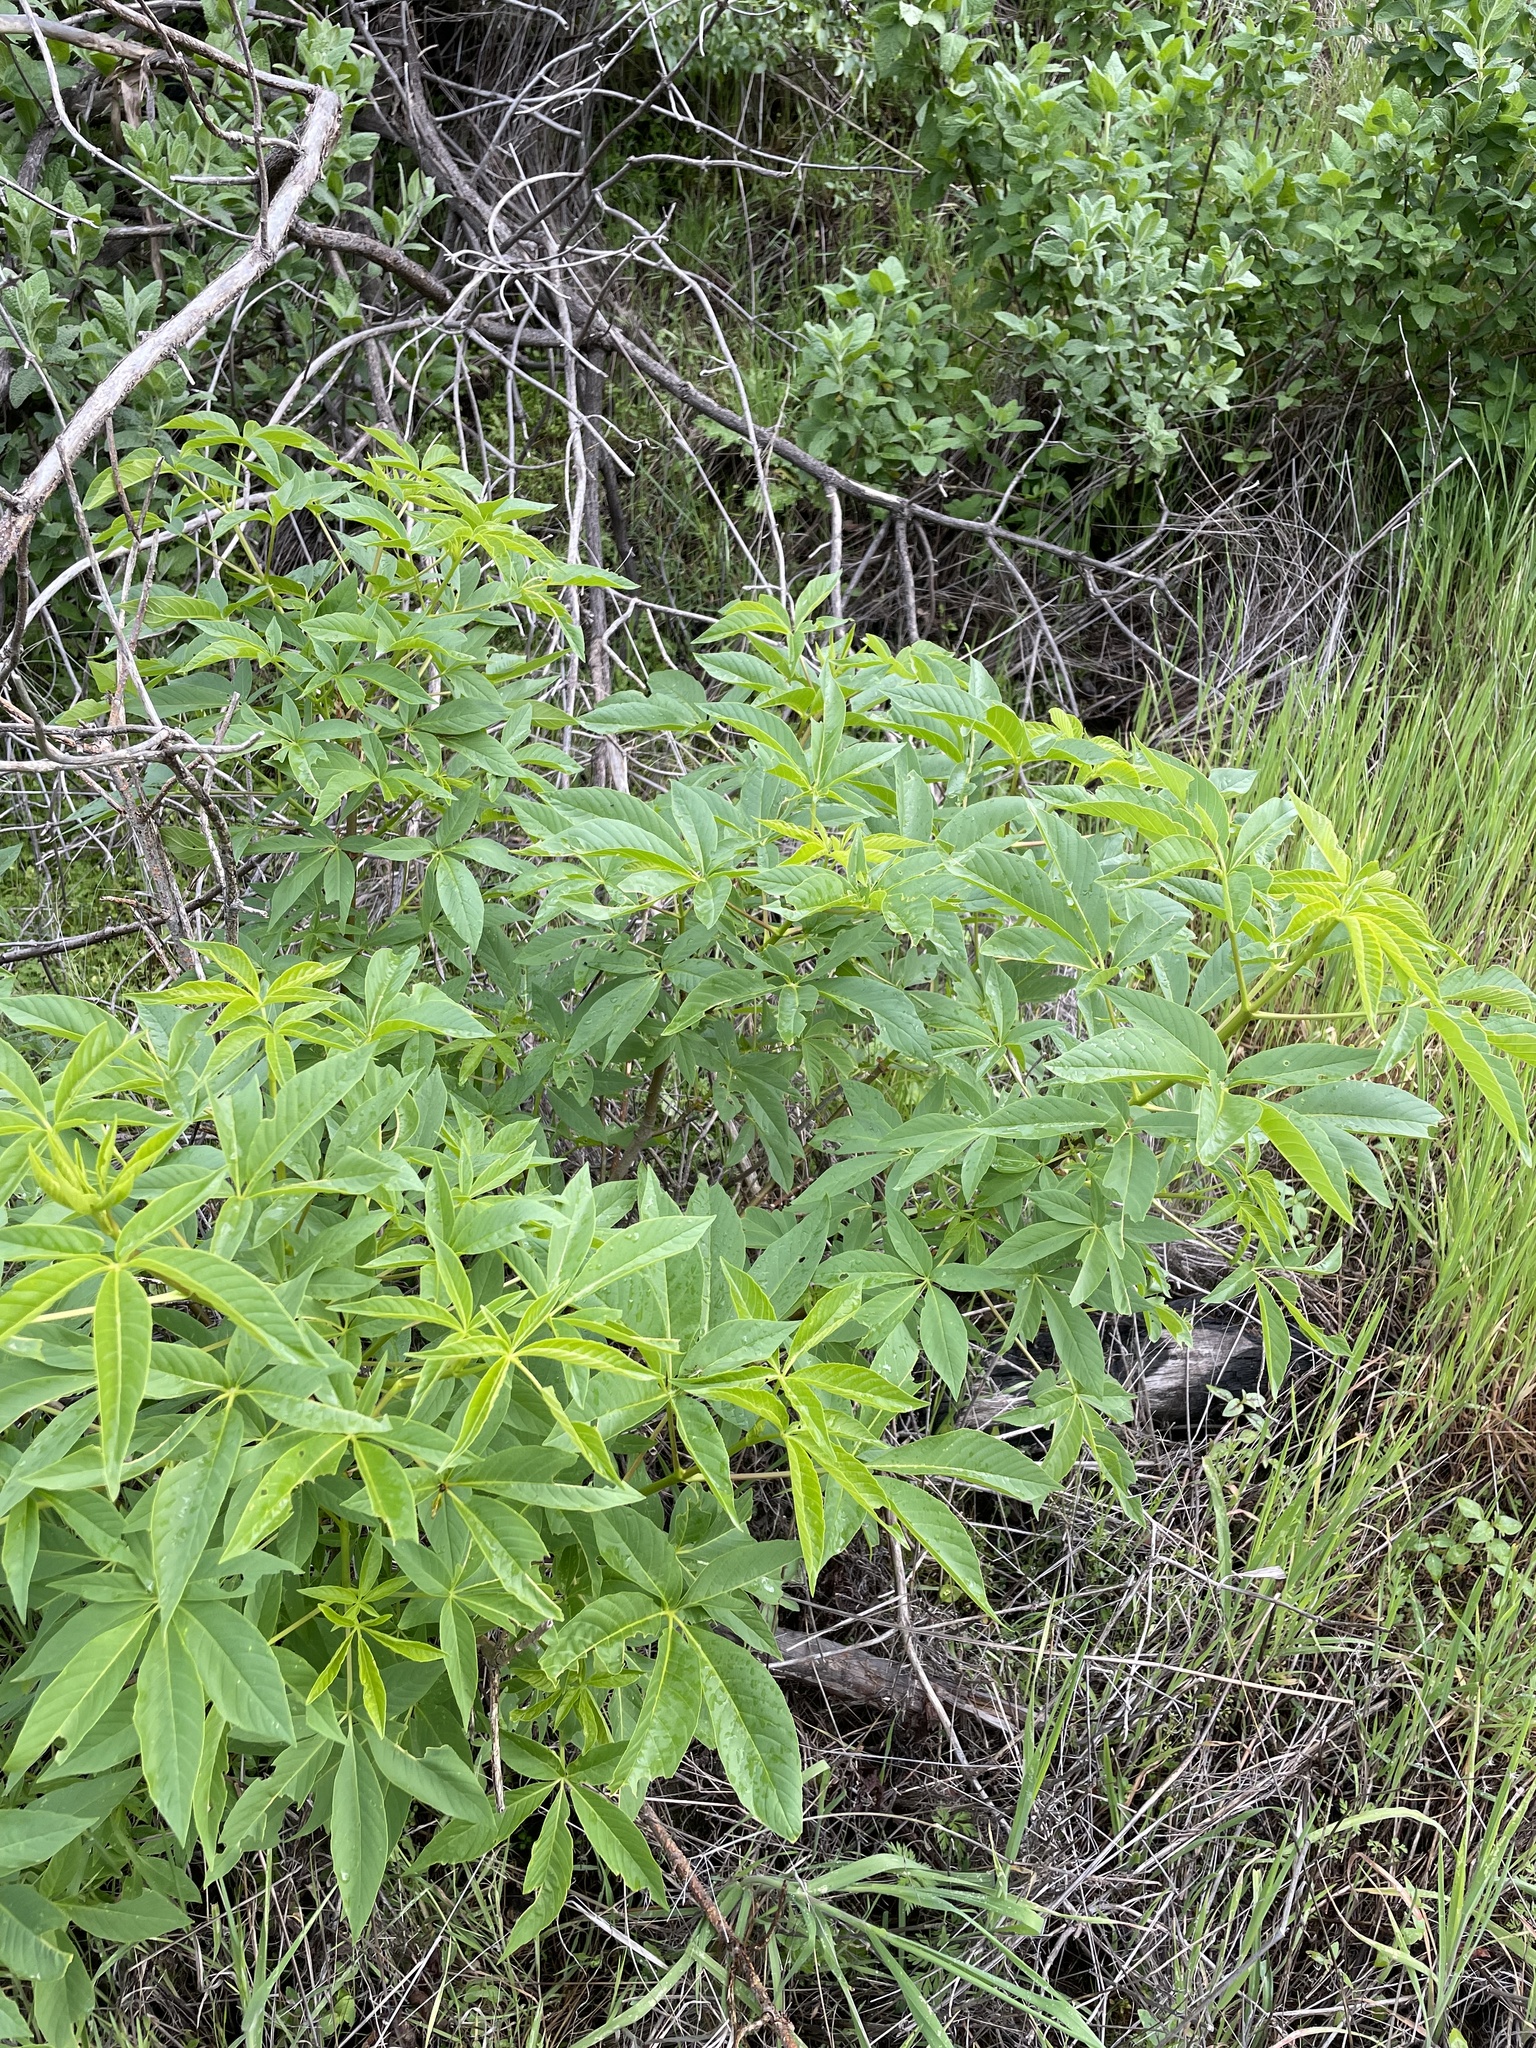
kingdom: Plantae
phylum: Tracheophyta
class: Magnoliopsida
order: Sapindales
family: Sapindaceae
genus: Aesculus
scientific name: Aesculus californica
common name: California buckeye
